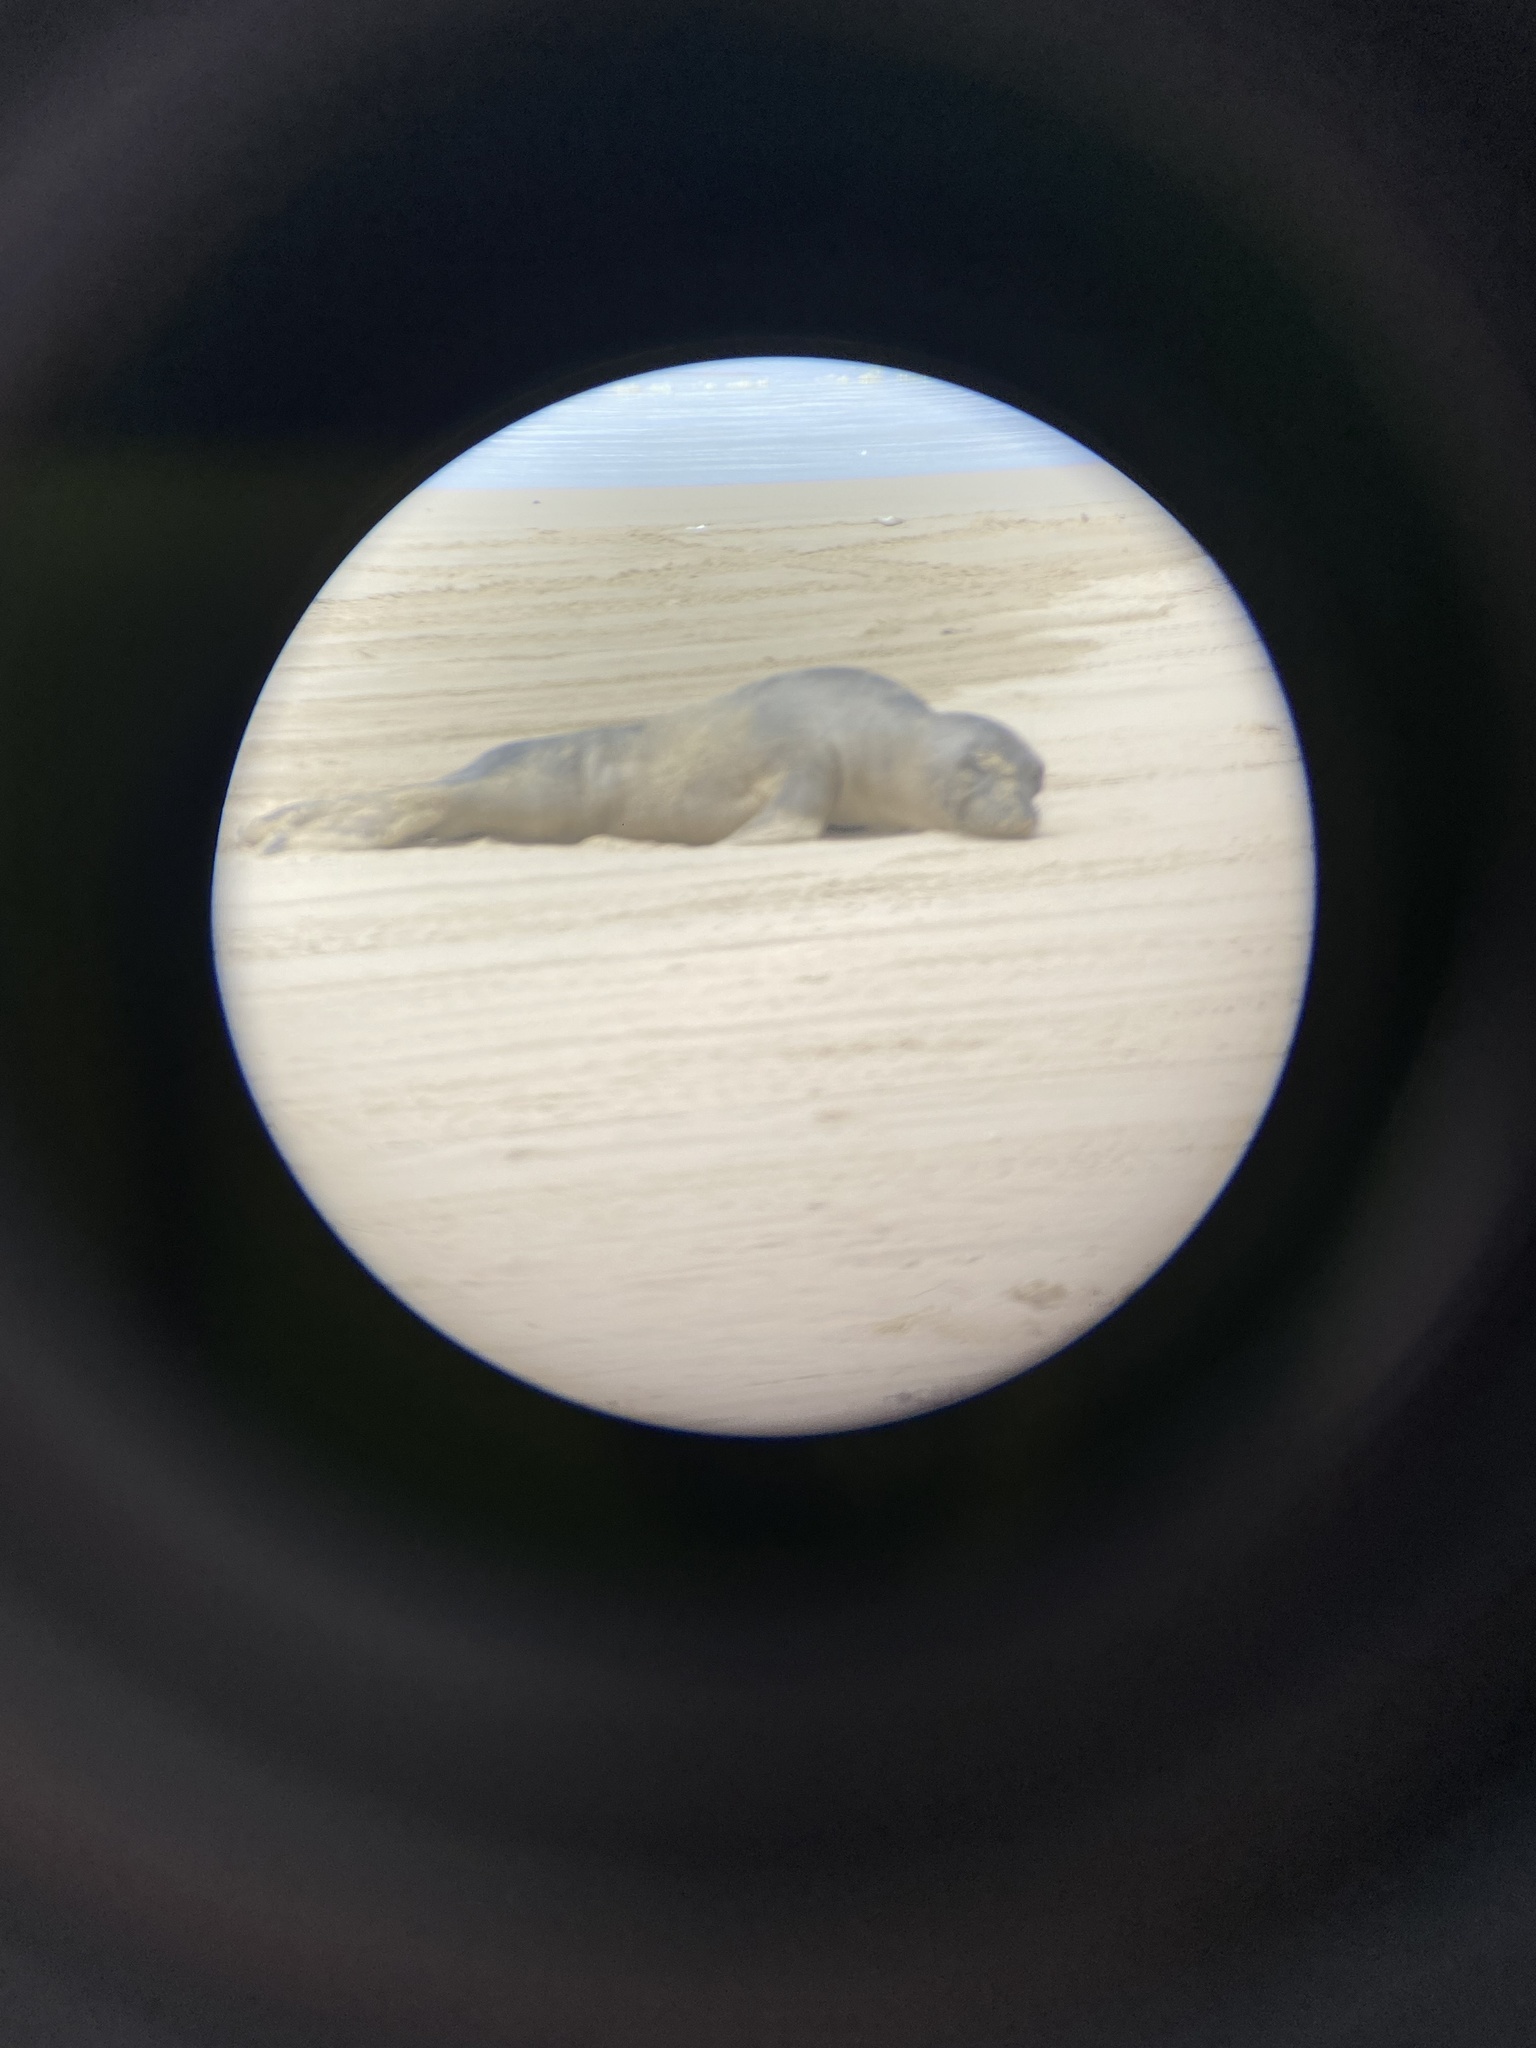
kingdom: Animalia
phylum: Chordata
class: Mammalia
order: Carnivora
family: Phocidae
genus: Mirounga
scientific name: Mirounga angustirostris
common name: Northern elephant seal
